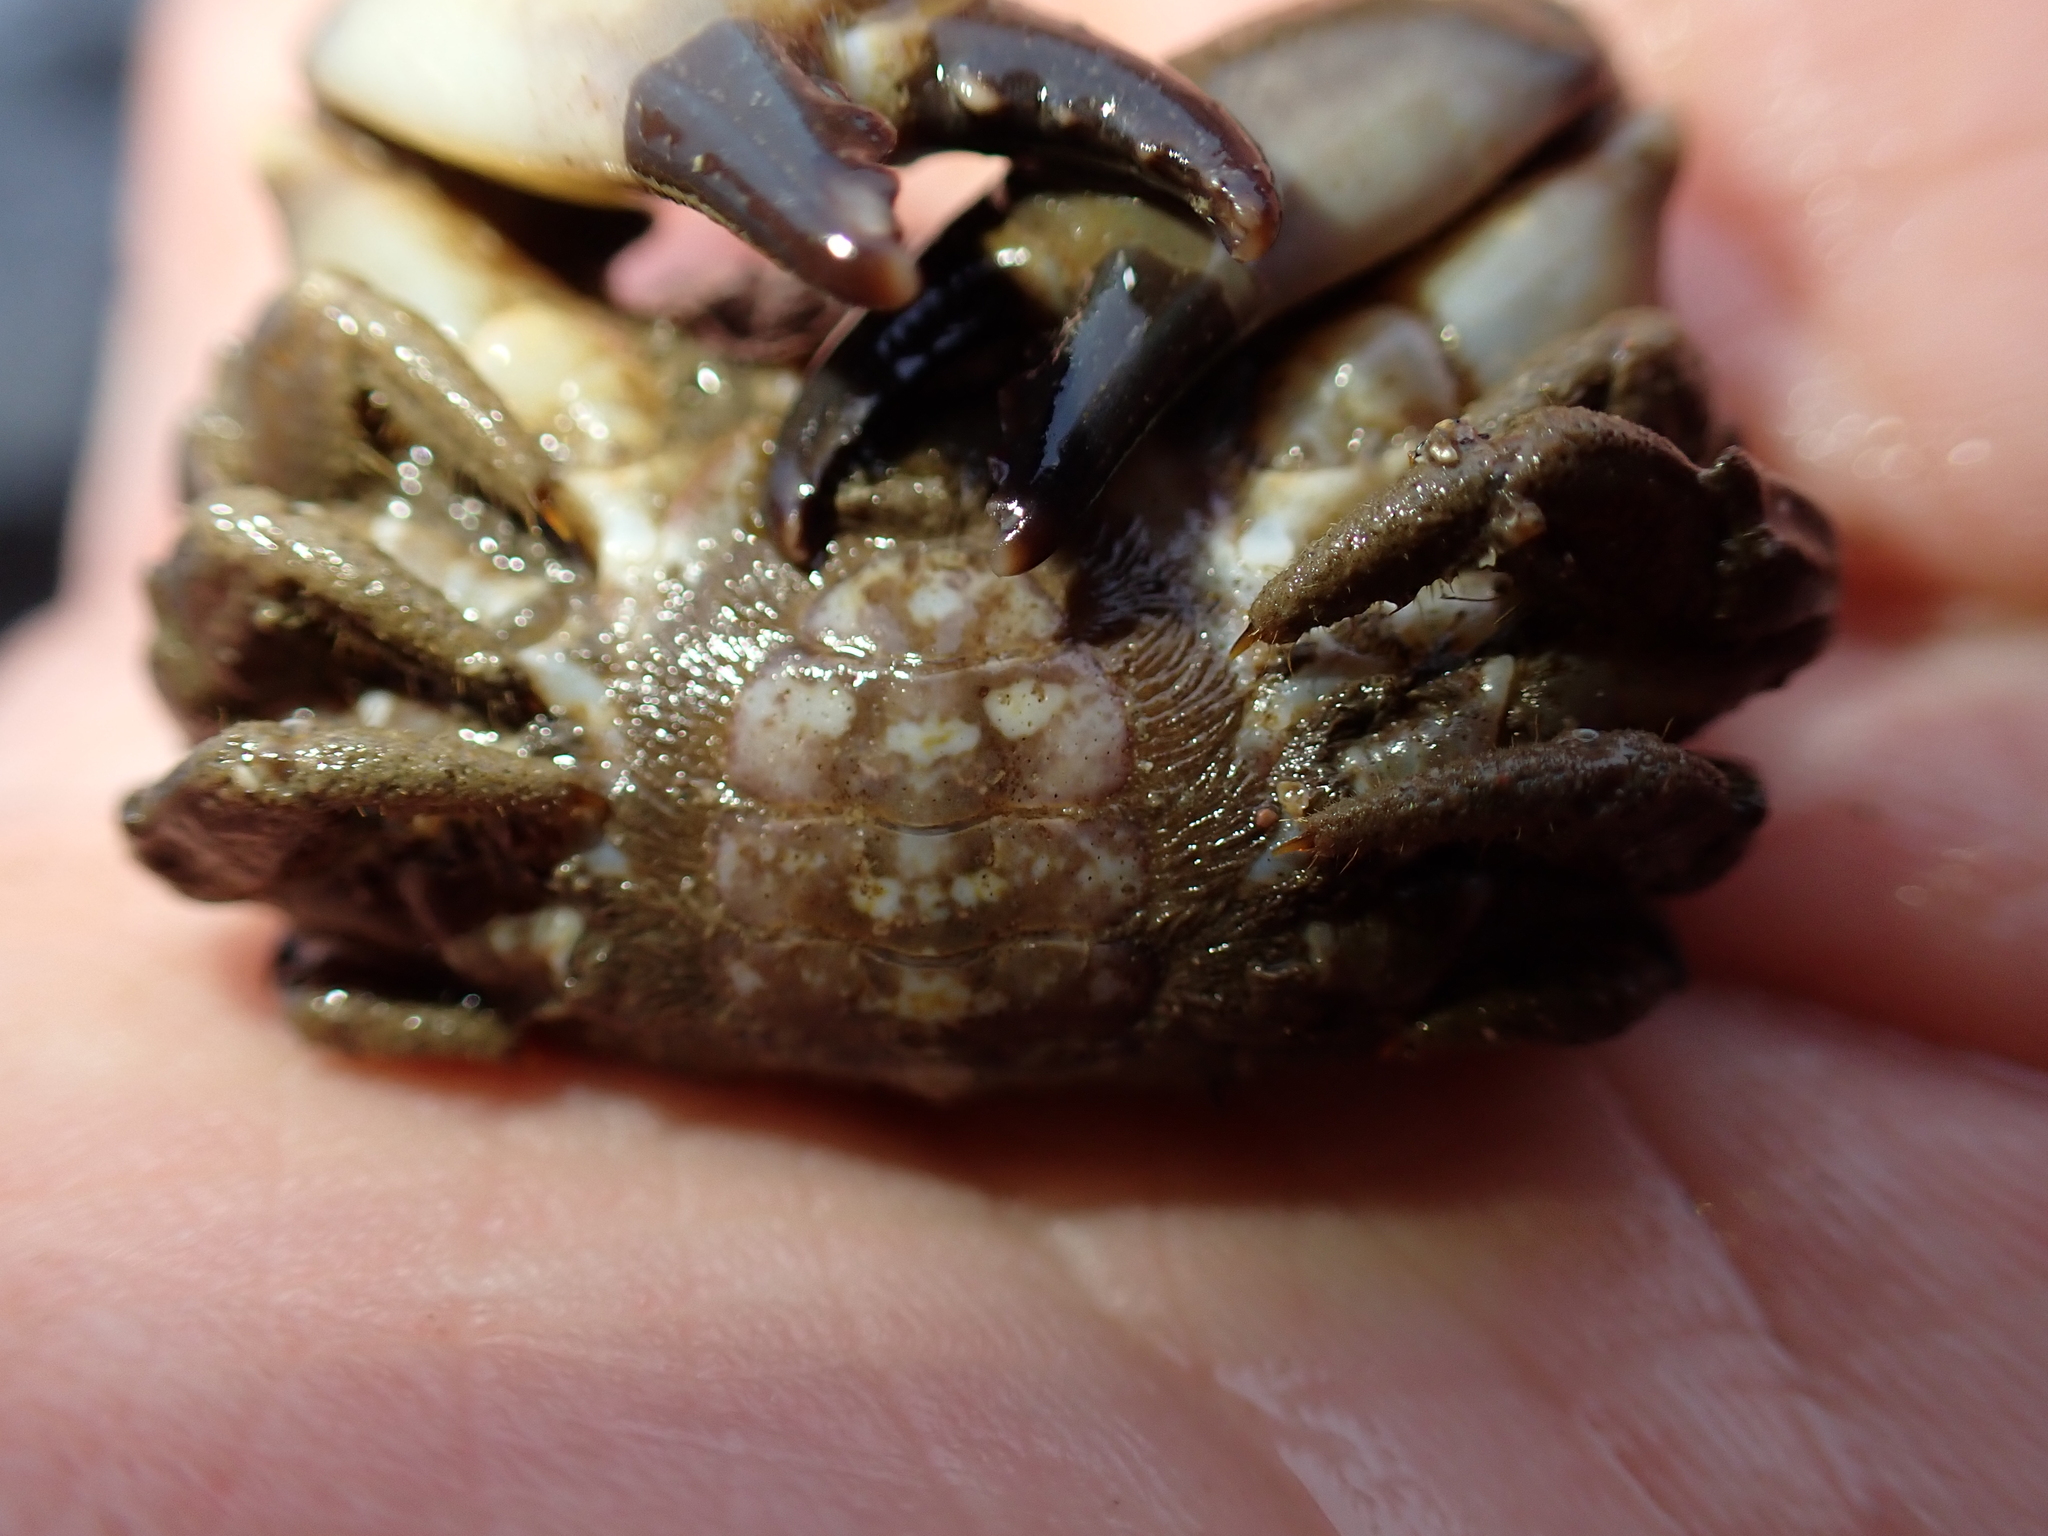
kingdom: Animalia
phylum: Arthropoda
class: Malacostraca
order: Decapoda
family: Xanthidae
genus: Xantho
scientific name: Xantho hydrophilus
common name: Montagu's crab
